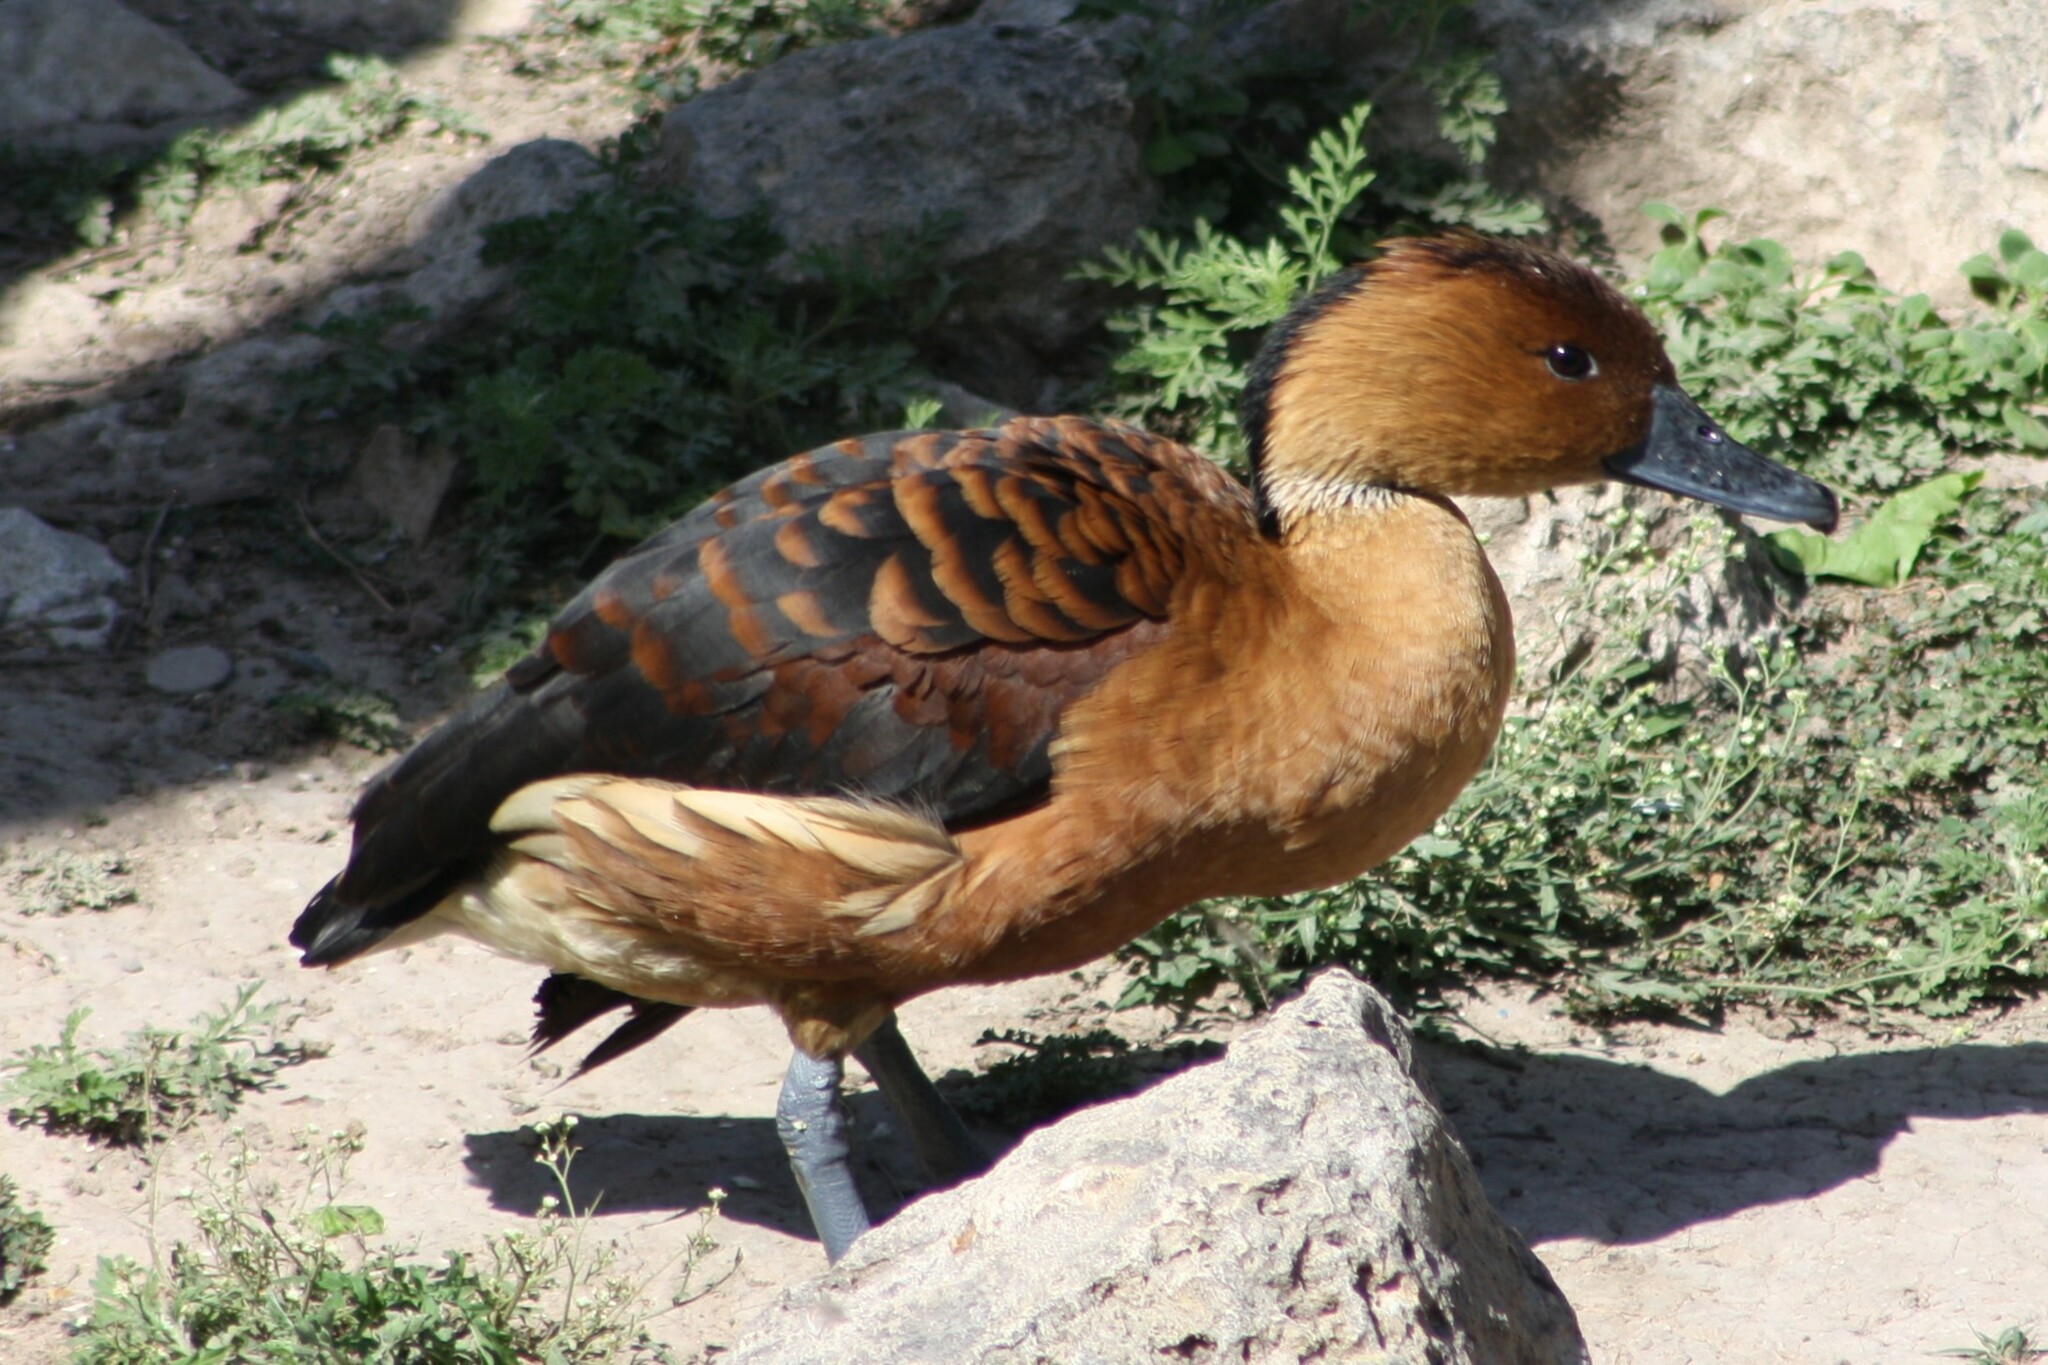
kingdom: Animalia
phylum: Chordata
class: Aves
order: Anseriformes
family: Anatidae
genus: Dendrocygna
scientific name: Dendrocygna bicolor
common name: Fulvous whistling duck
